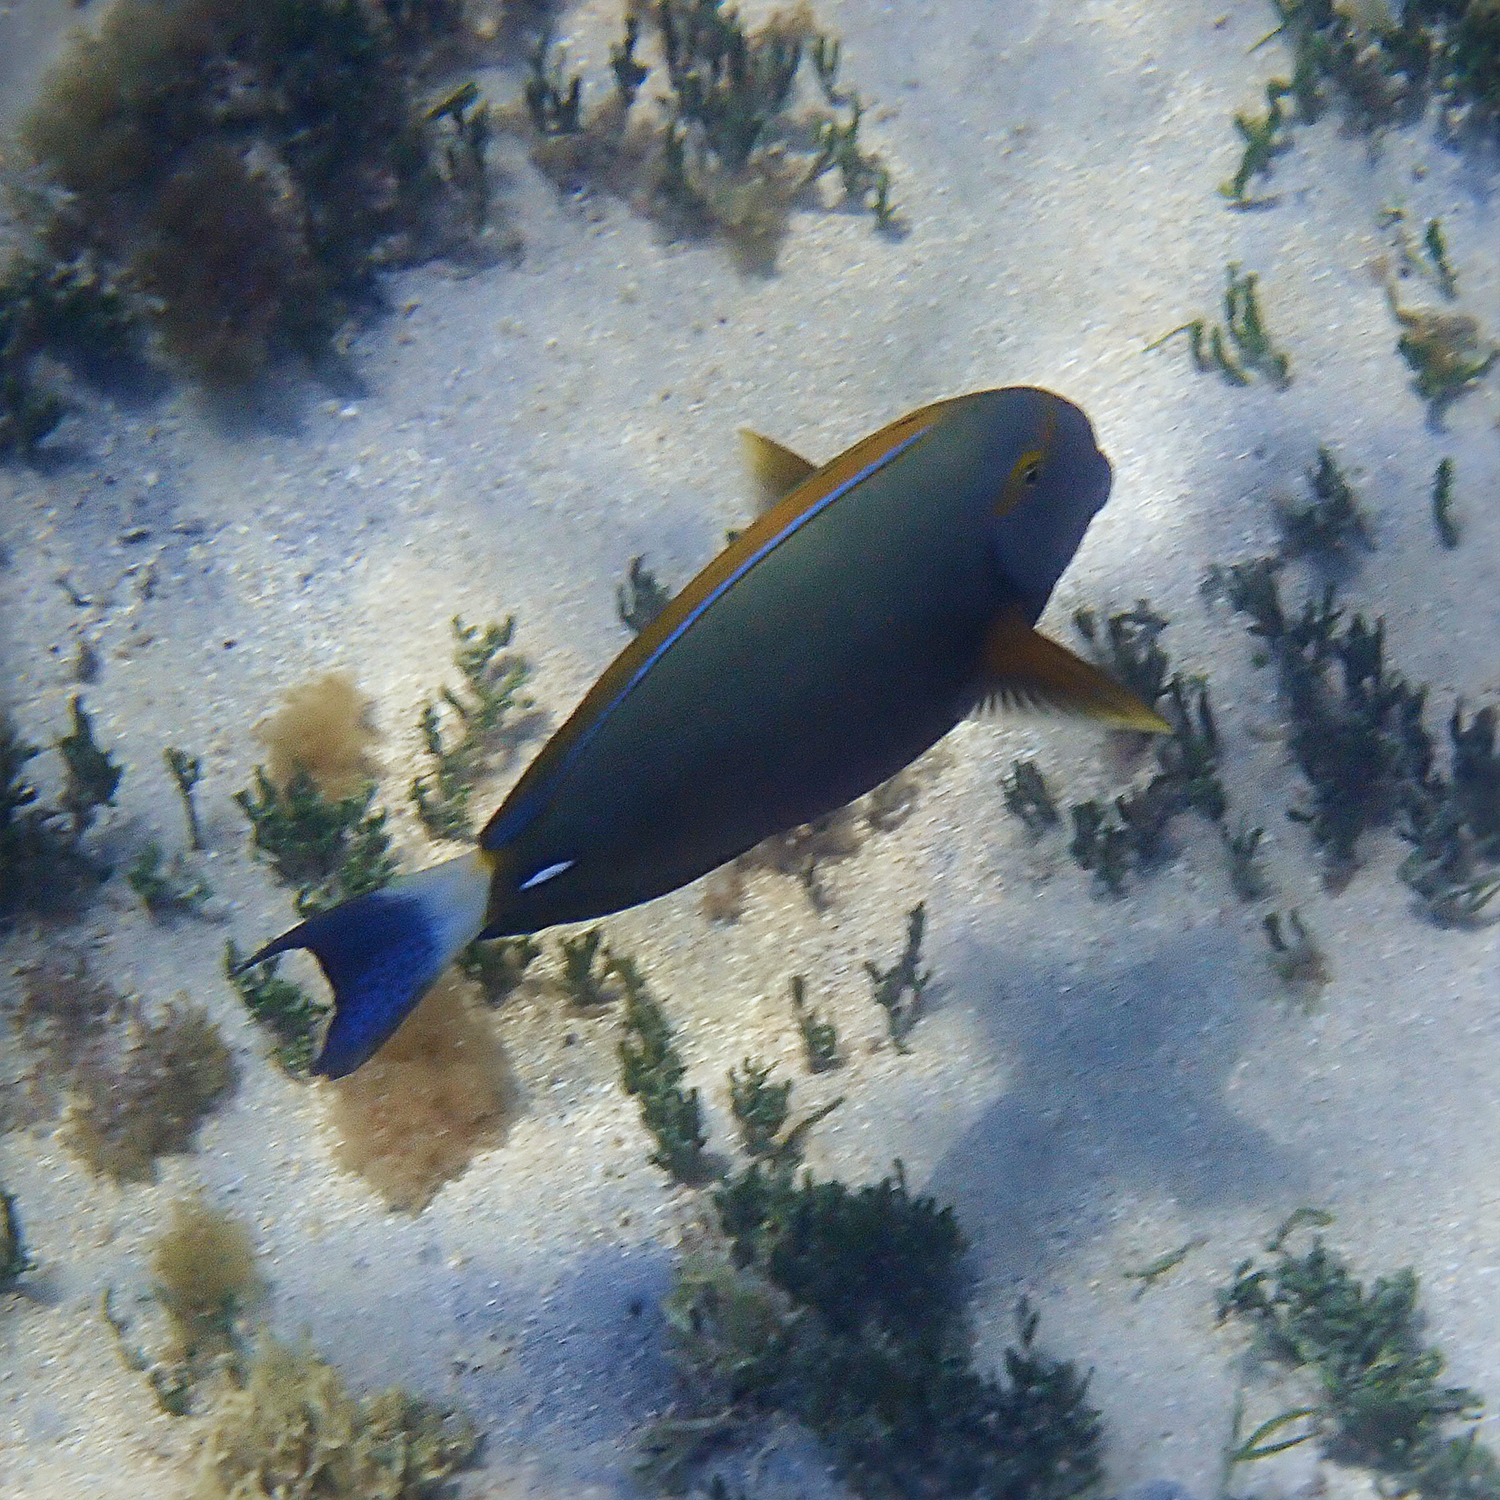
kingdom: Animalia
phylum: Chordata
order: Perciformes
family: Acanthuridae
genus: Acanthurus
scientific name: Acanthurus dussumieri
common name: Dussumier's surgeonfish
